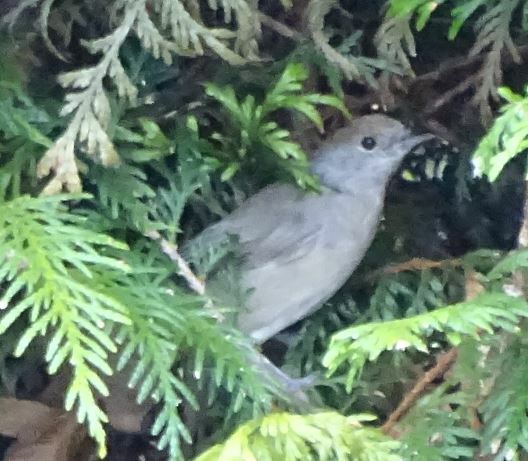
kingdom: Animalia
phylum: Chordata
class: Aves
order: Passeriformes
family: Sylviidae
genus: Sylvia
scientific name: Sylvia atricapilla
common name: Eurasian blackcap
